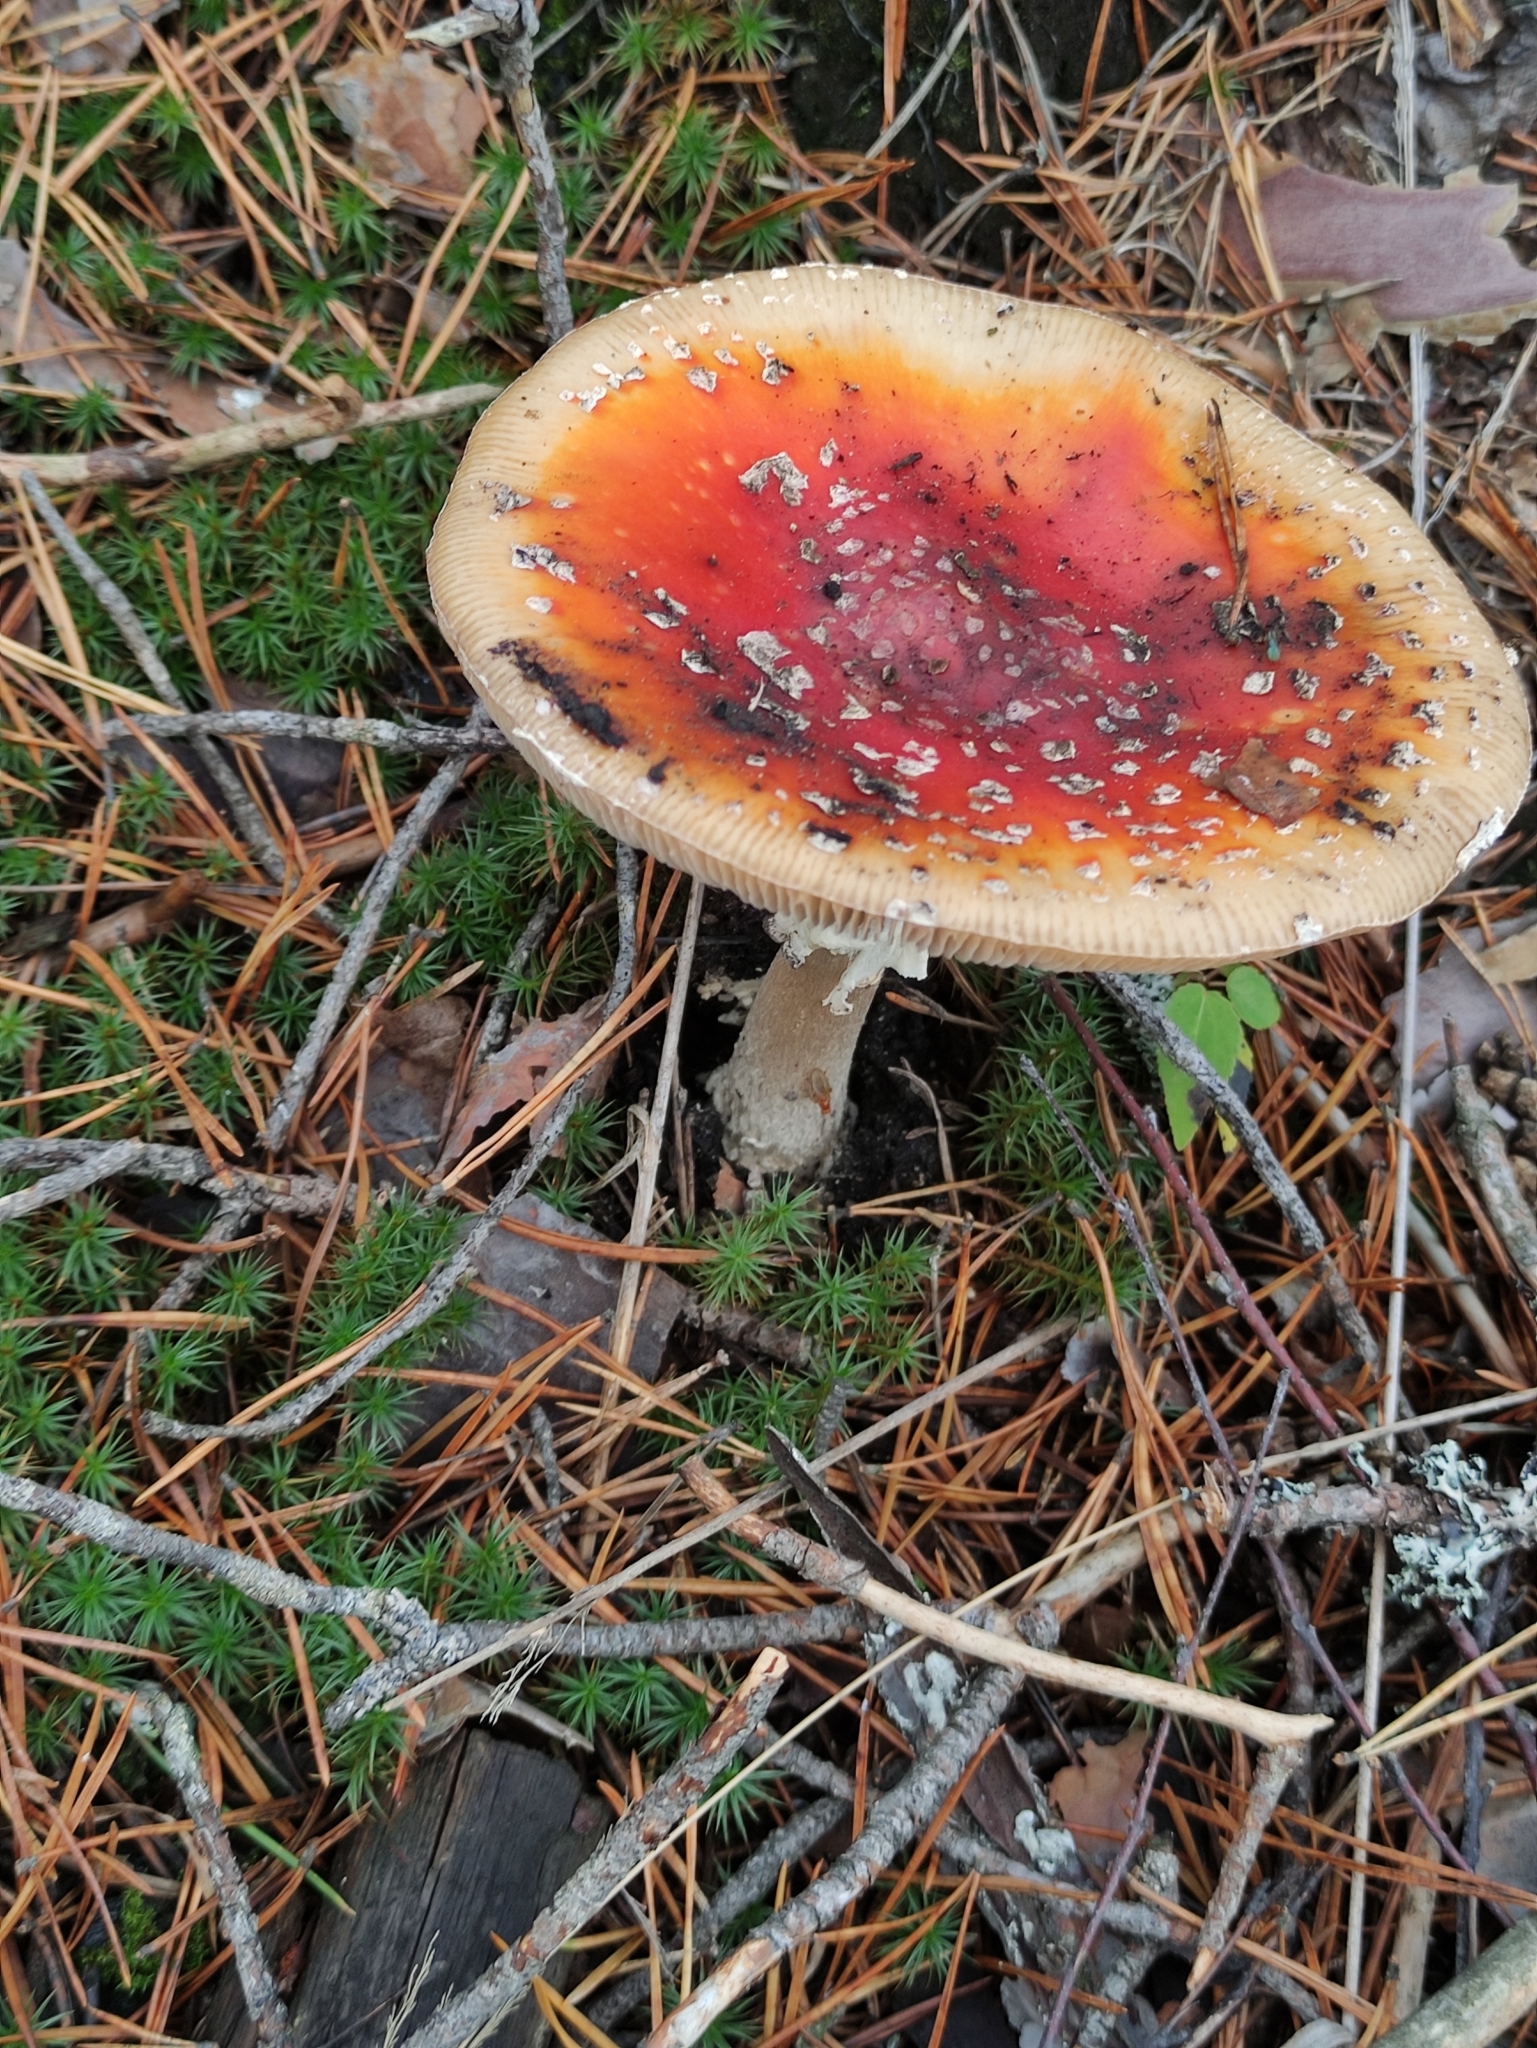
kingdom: Fungi
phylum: Basidiomycota
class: Agaricomycetes
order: Agaricales
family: Amanitaceae
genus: Amanita
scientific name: Amanita muscaria
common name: Fly agaric
